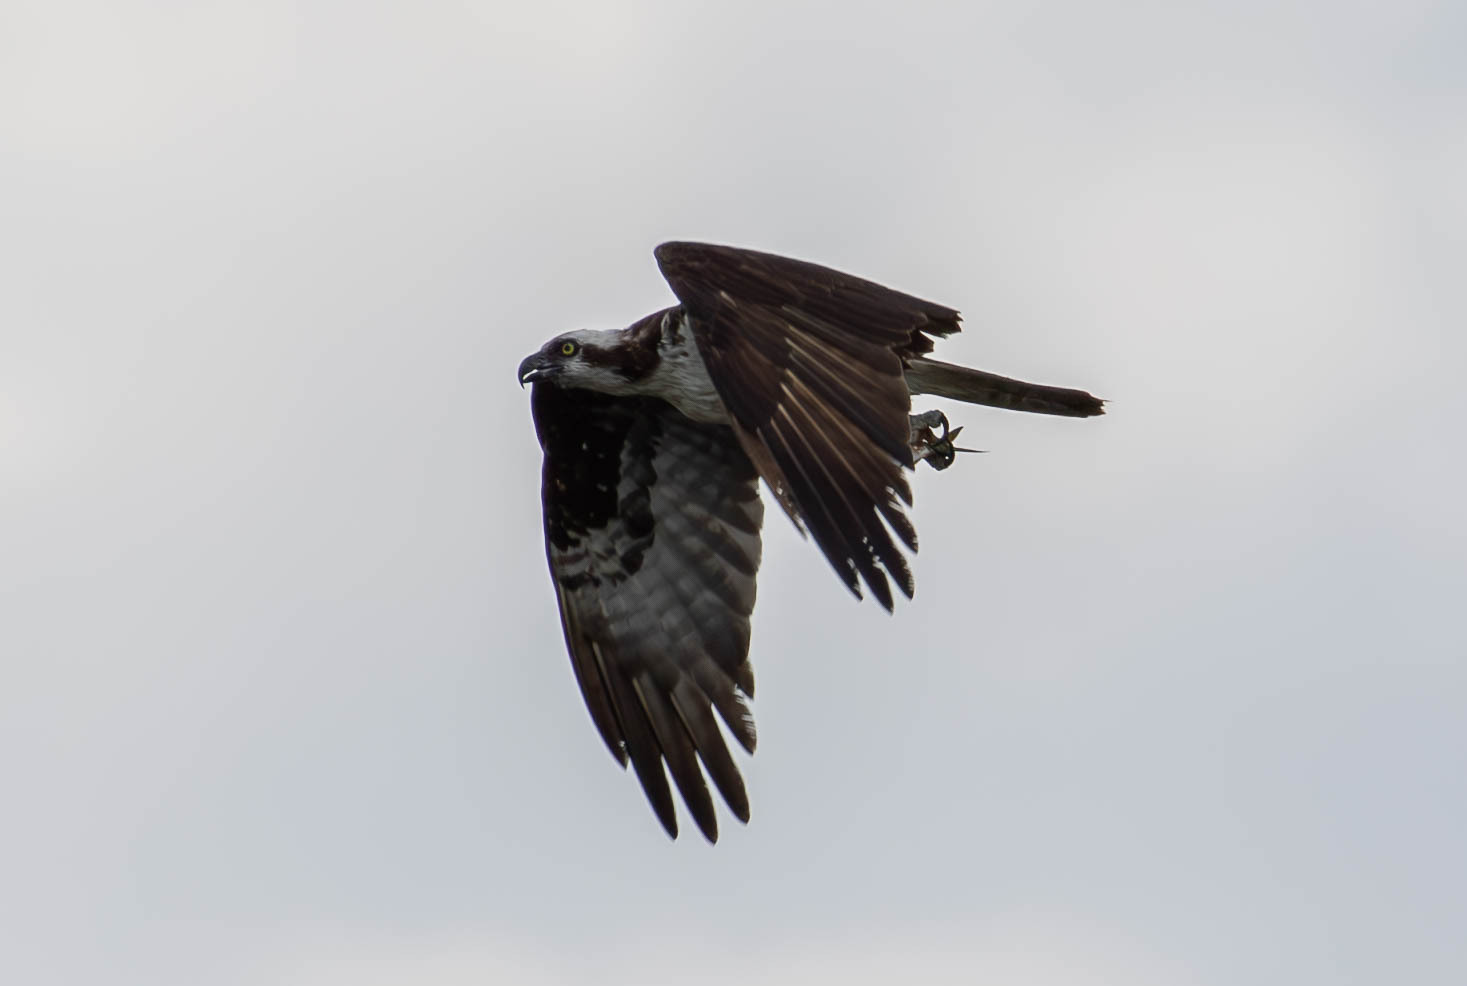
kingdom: Animalia
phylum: Chordata
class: Aves
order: Accipitriformes
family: Pandionidae
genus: Pandion
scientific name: Pandion haliaetus
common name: Osprey
